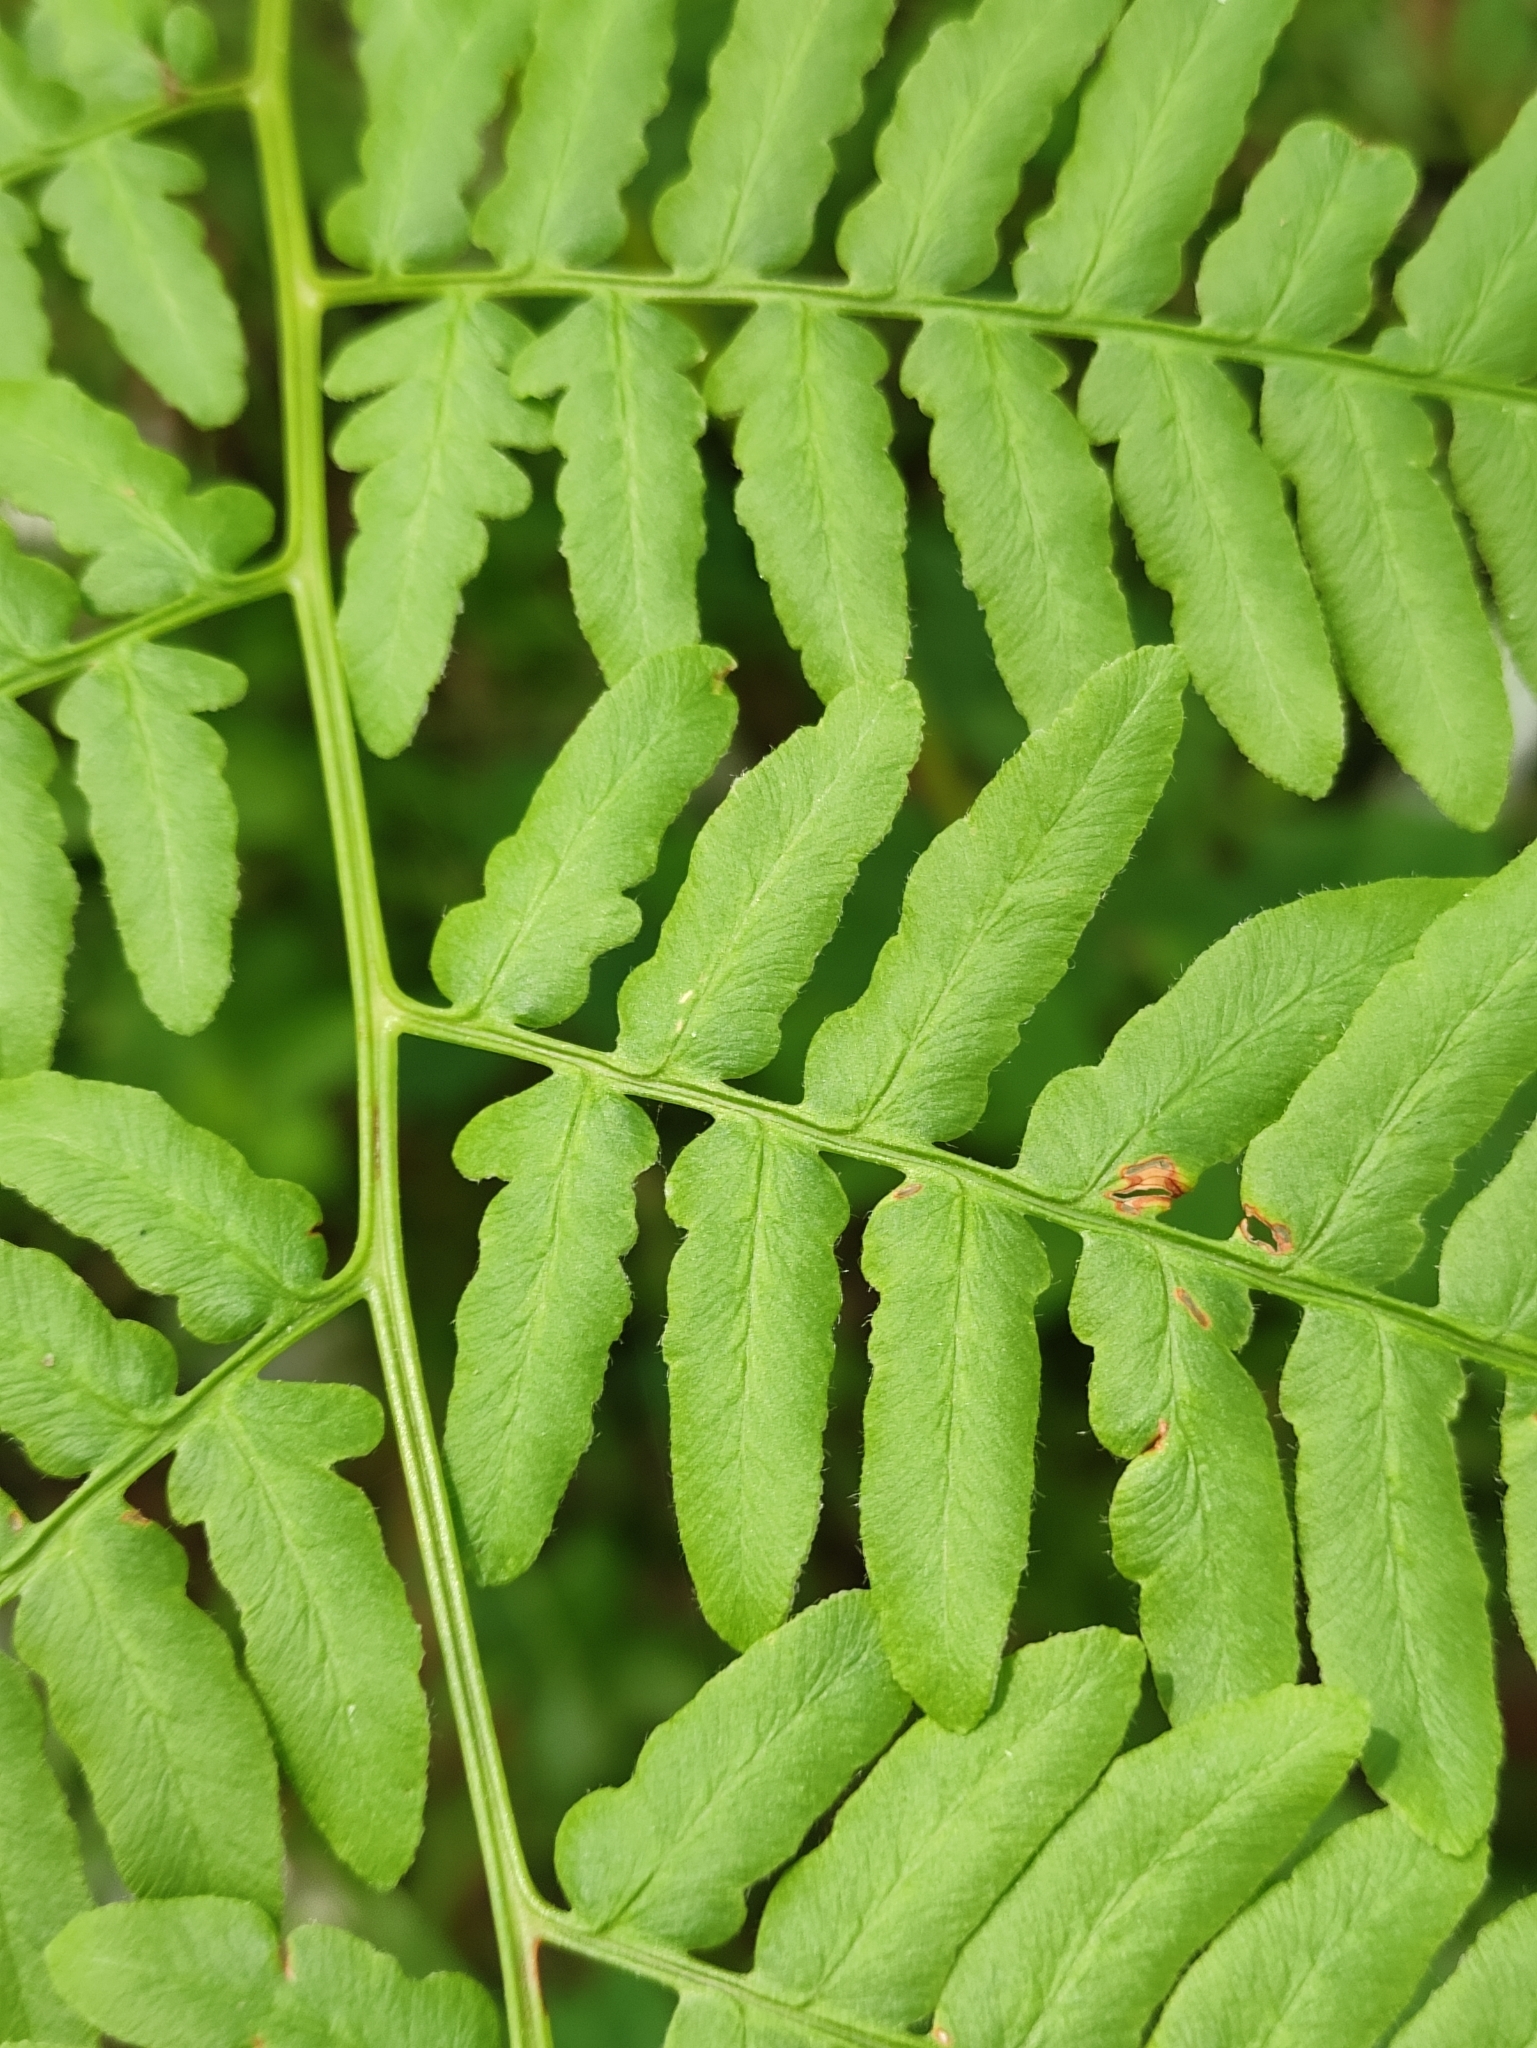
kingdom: Plantae
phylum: Tracheophyta
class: Polypodiopsida
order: Polypodiales
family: Dennstaedtiaceae
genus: Pteridium
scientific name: Pteridium aquilinum
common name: Bracken
